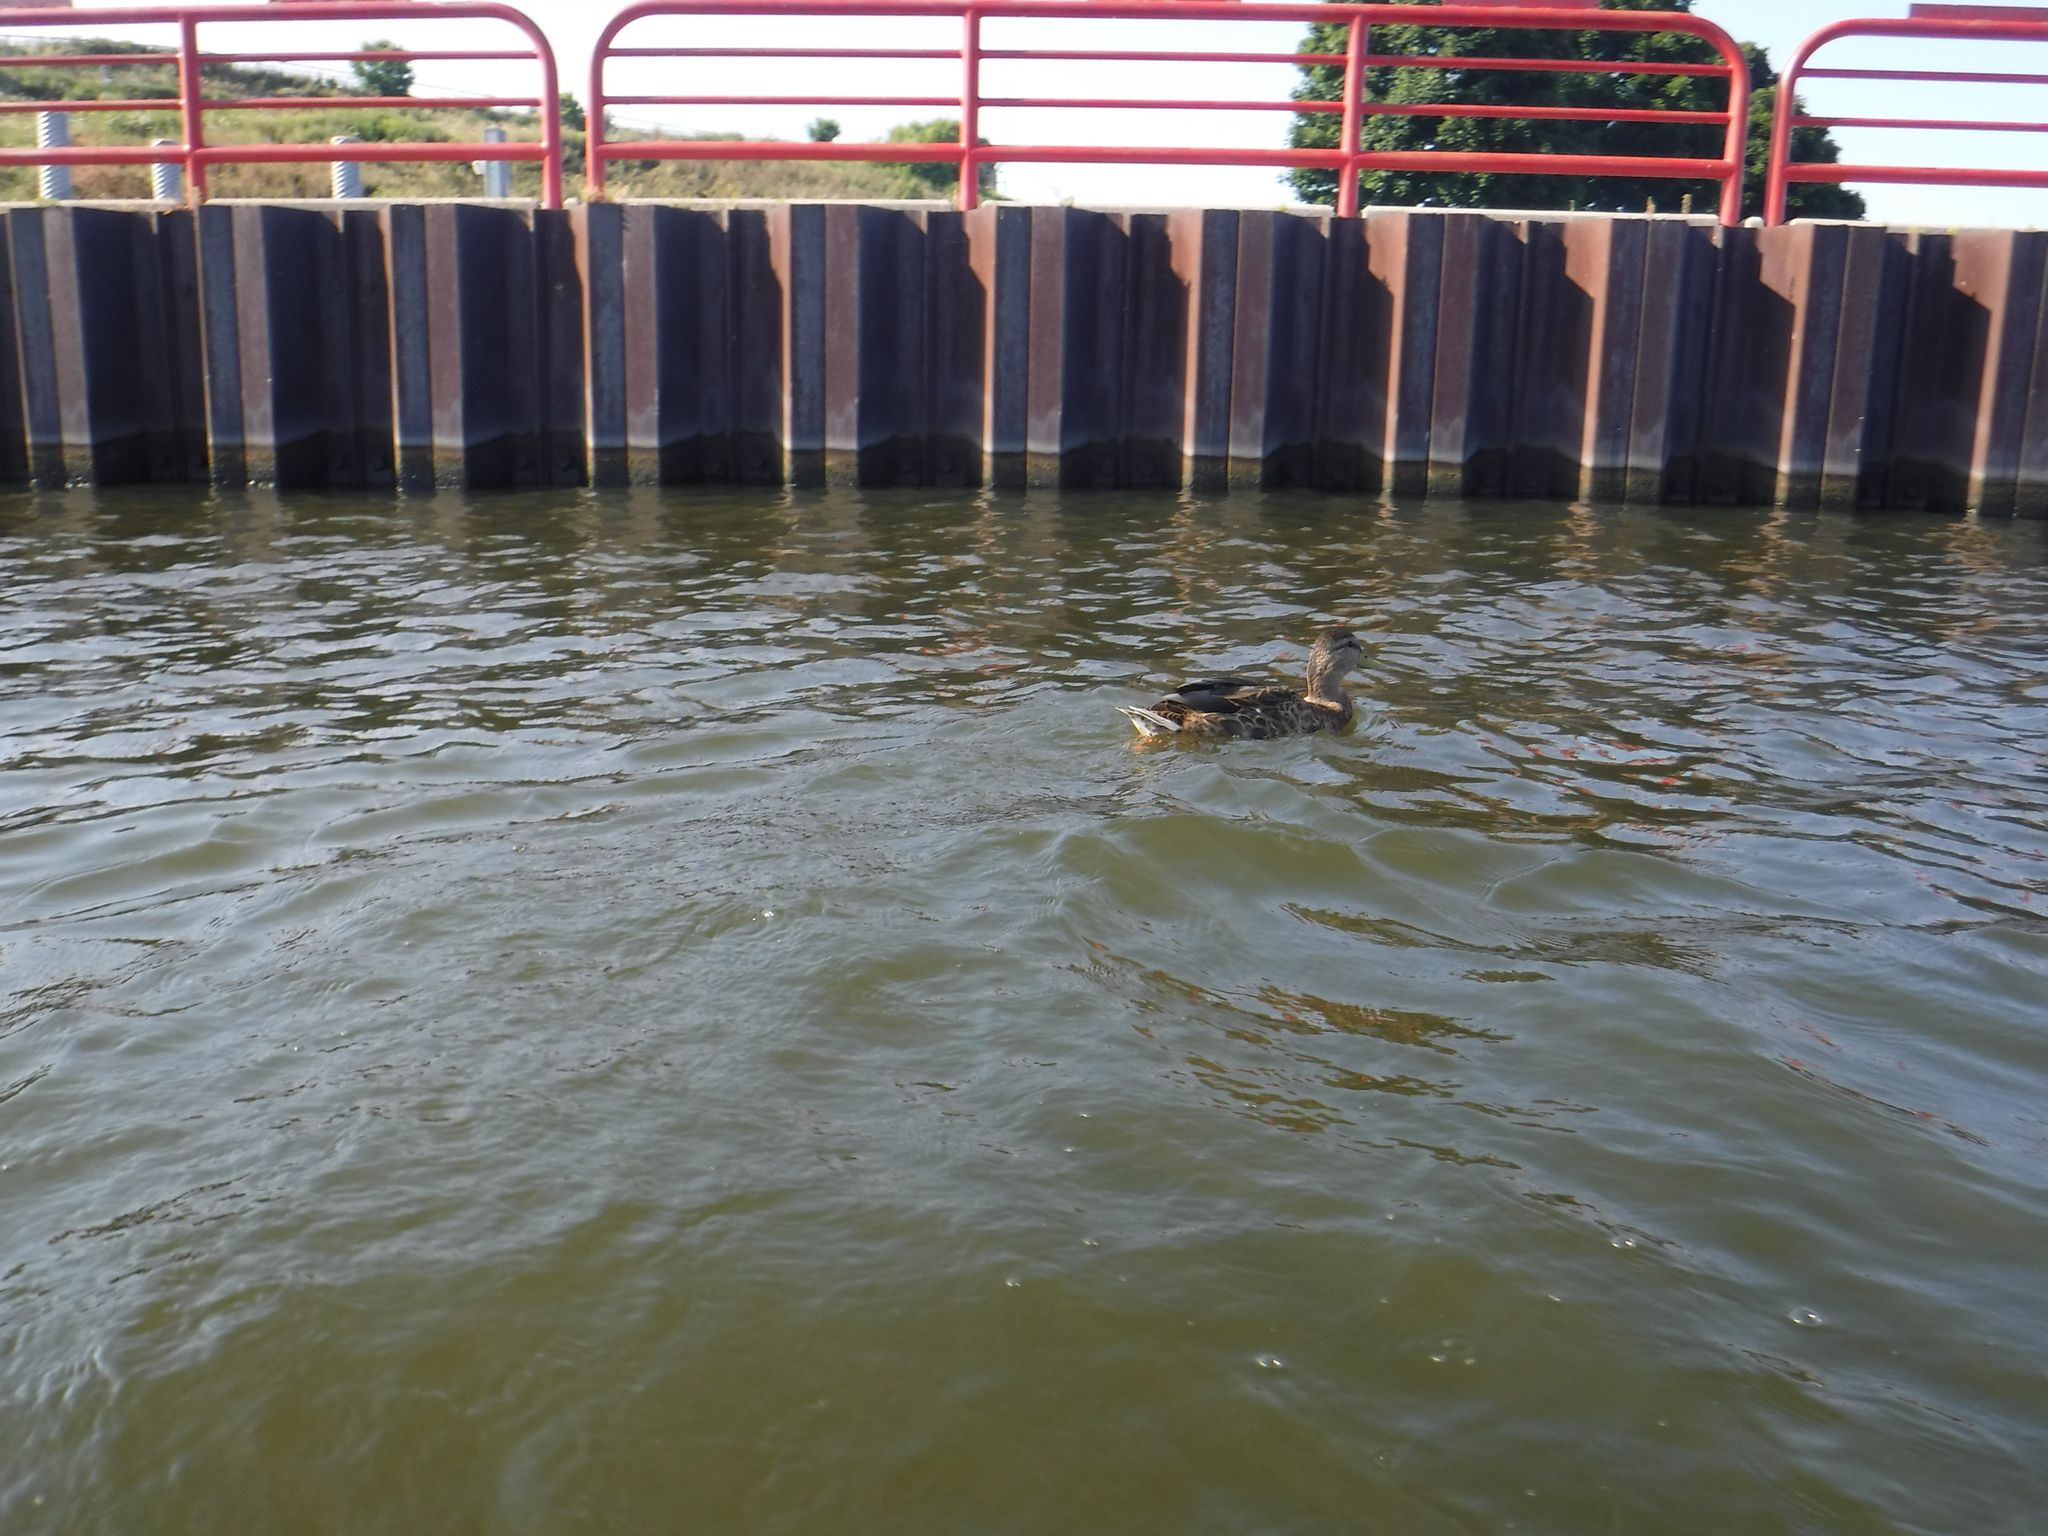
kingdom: Animalia
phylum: Chordata
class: Aves
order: Anseriformes
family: Anatidae
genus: Anas
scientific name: Anas platyrhynchos
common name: Mallard
